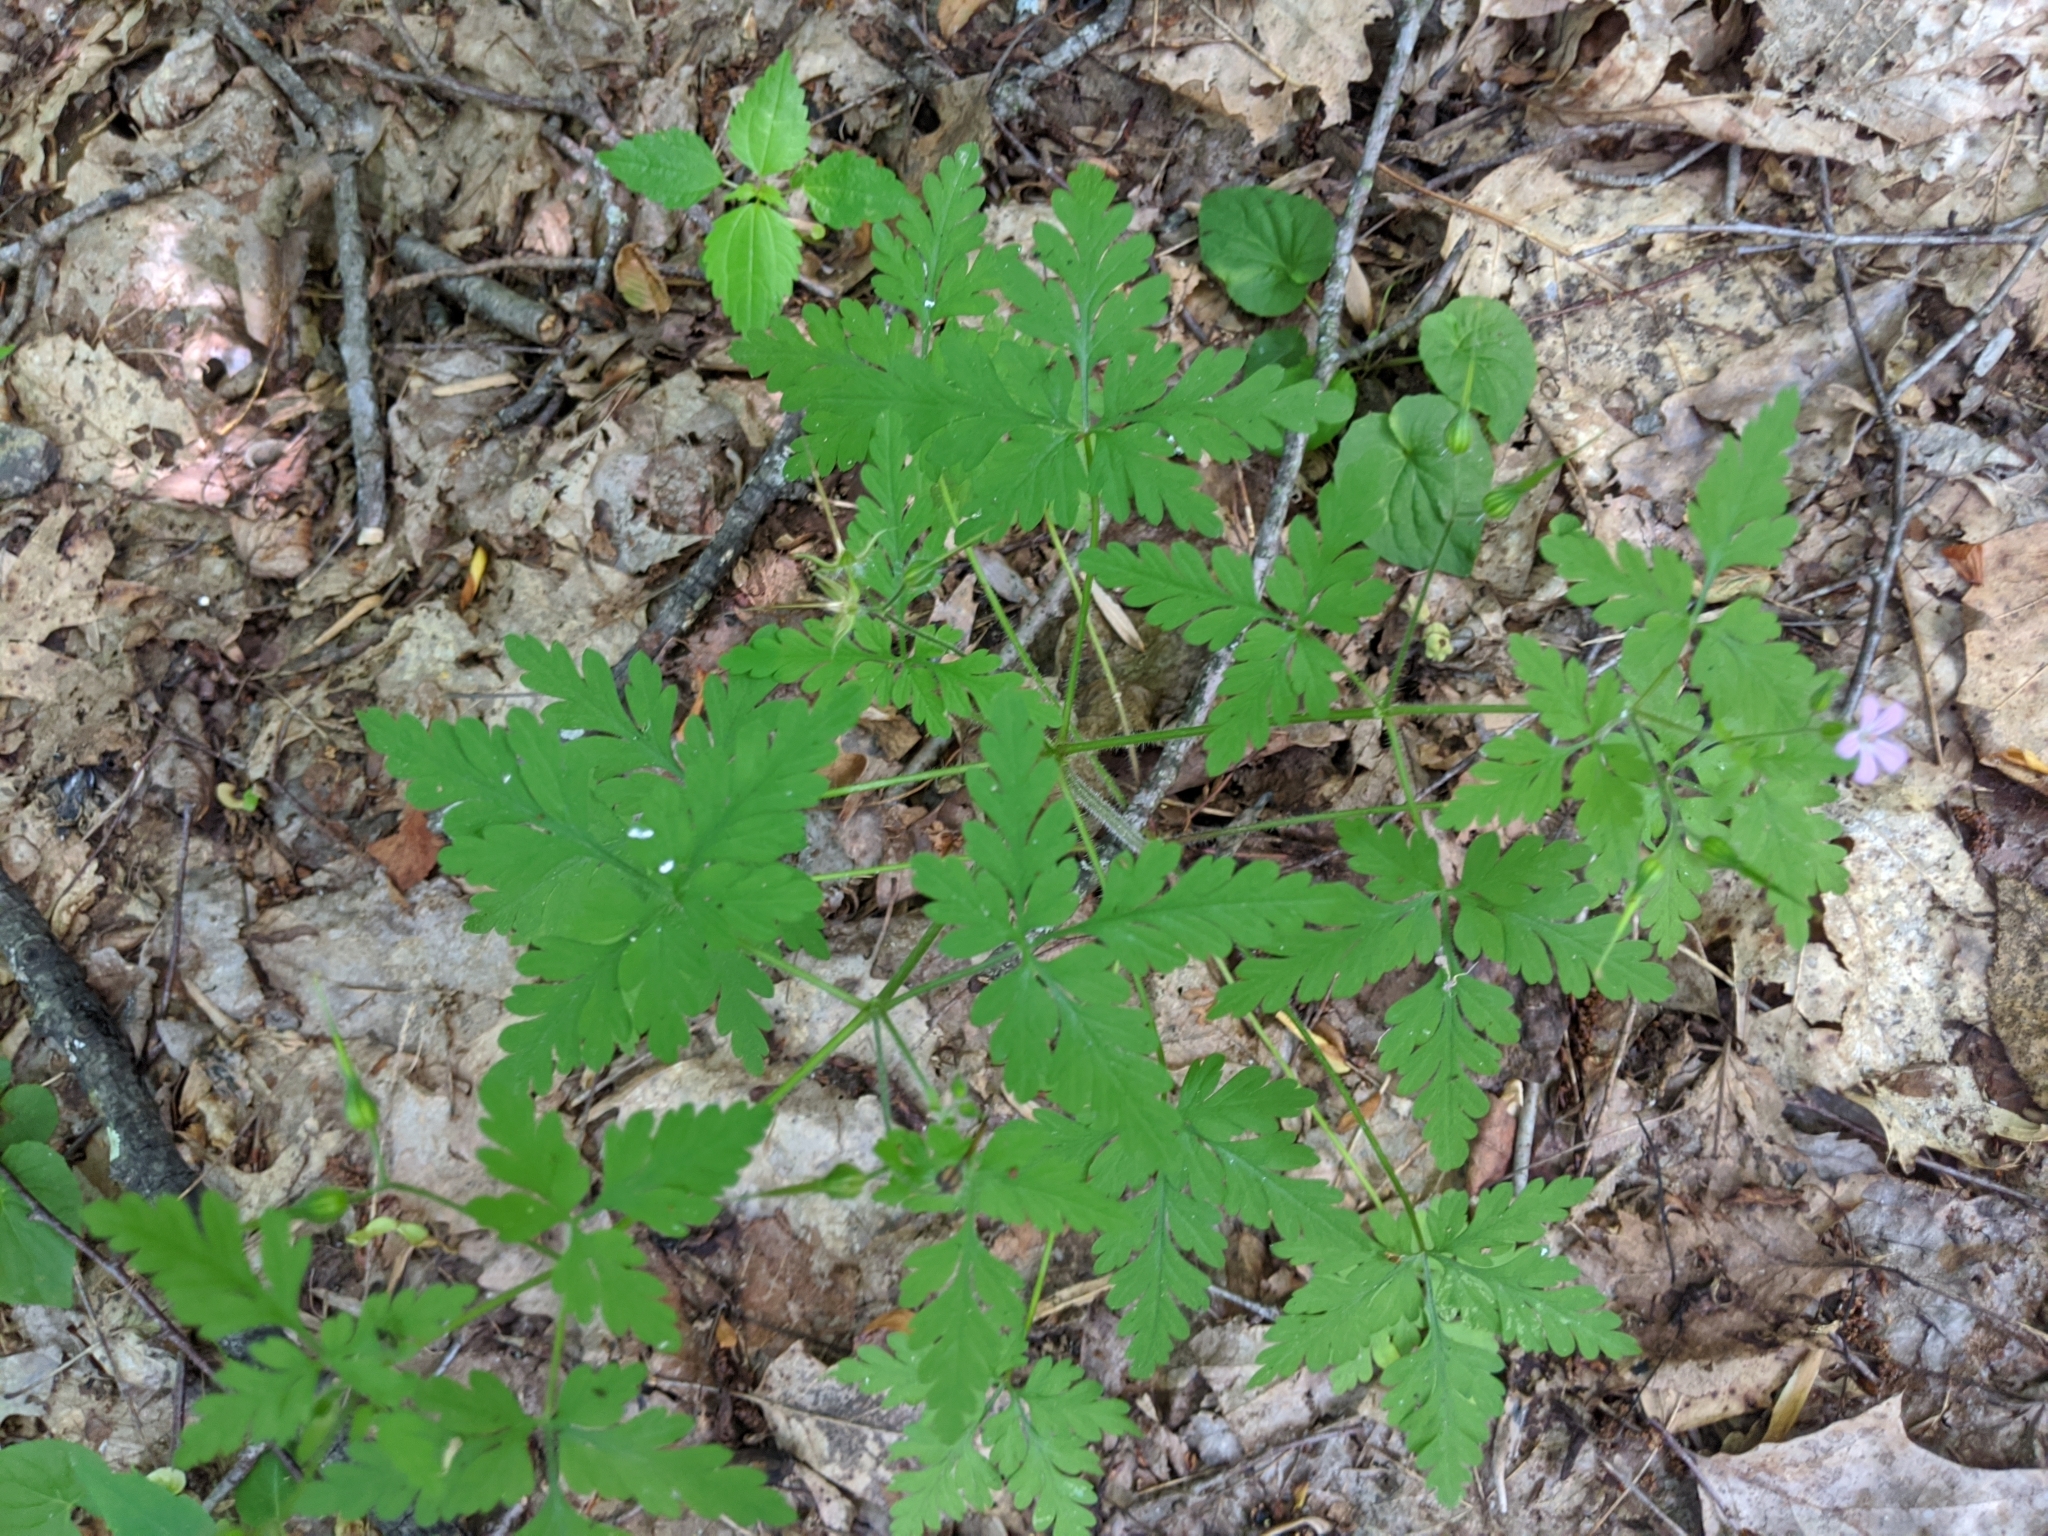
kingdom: Plantae
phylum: Tracheophyta
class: Magnoliopsida
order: Geraniales
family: Geraniaceae
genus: Geranium
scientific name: Geranium robertianum
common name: Herb-robert
